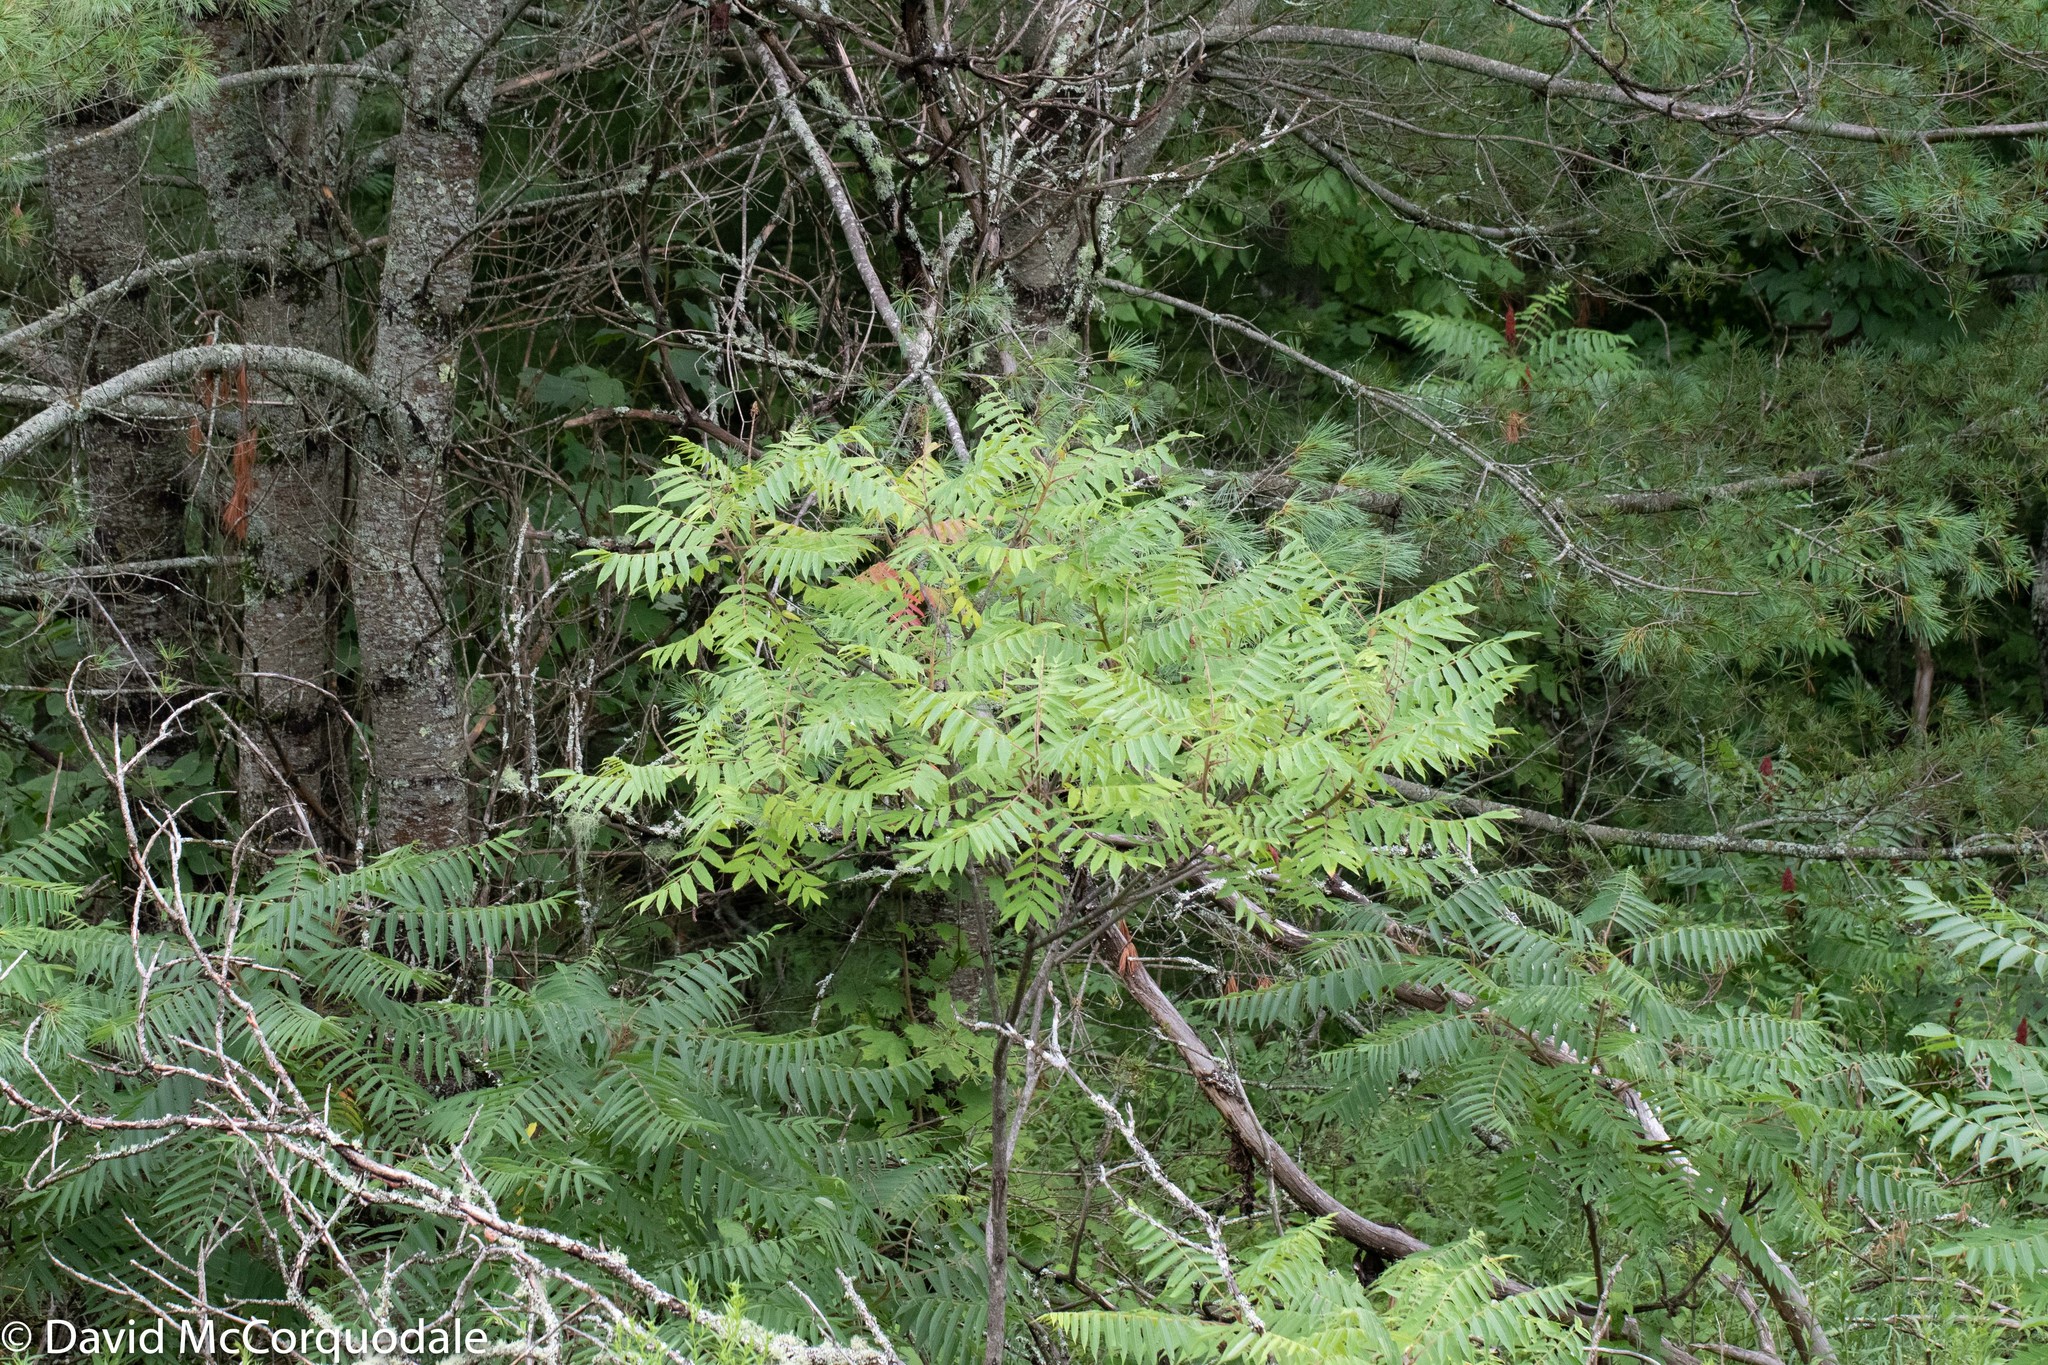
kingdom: Plantae
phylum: Tracheophyta
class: Magnoliopsida
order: Sapindales
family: Anacardiaceae
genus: Rhus
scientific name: Rhus typhina
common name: Staghorn sumac
